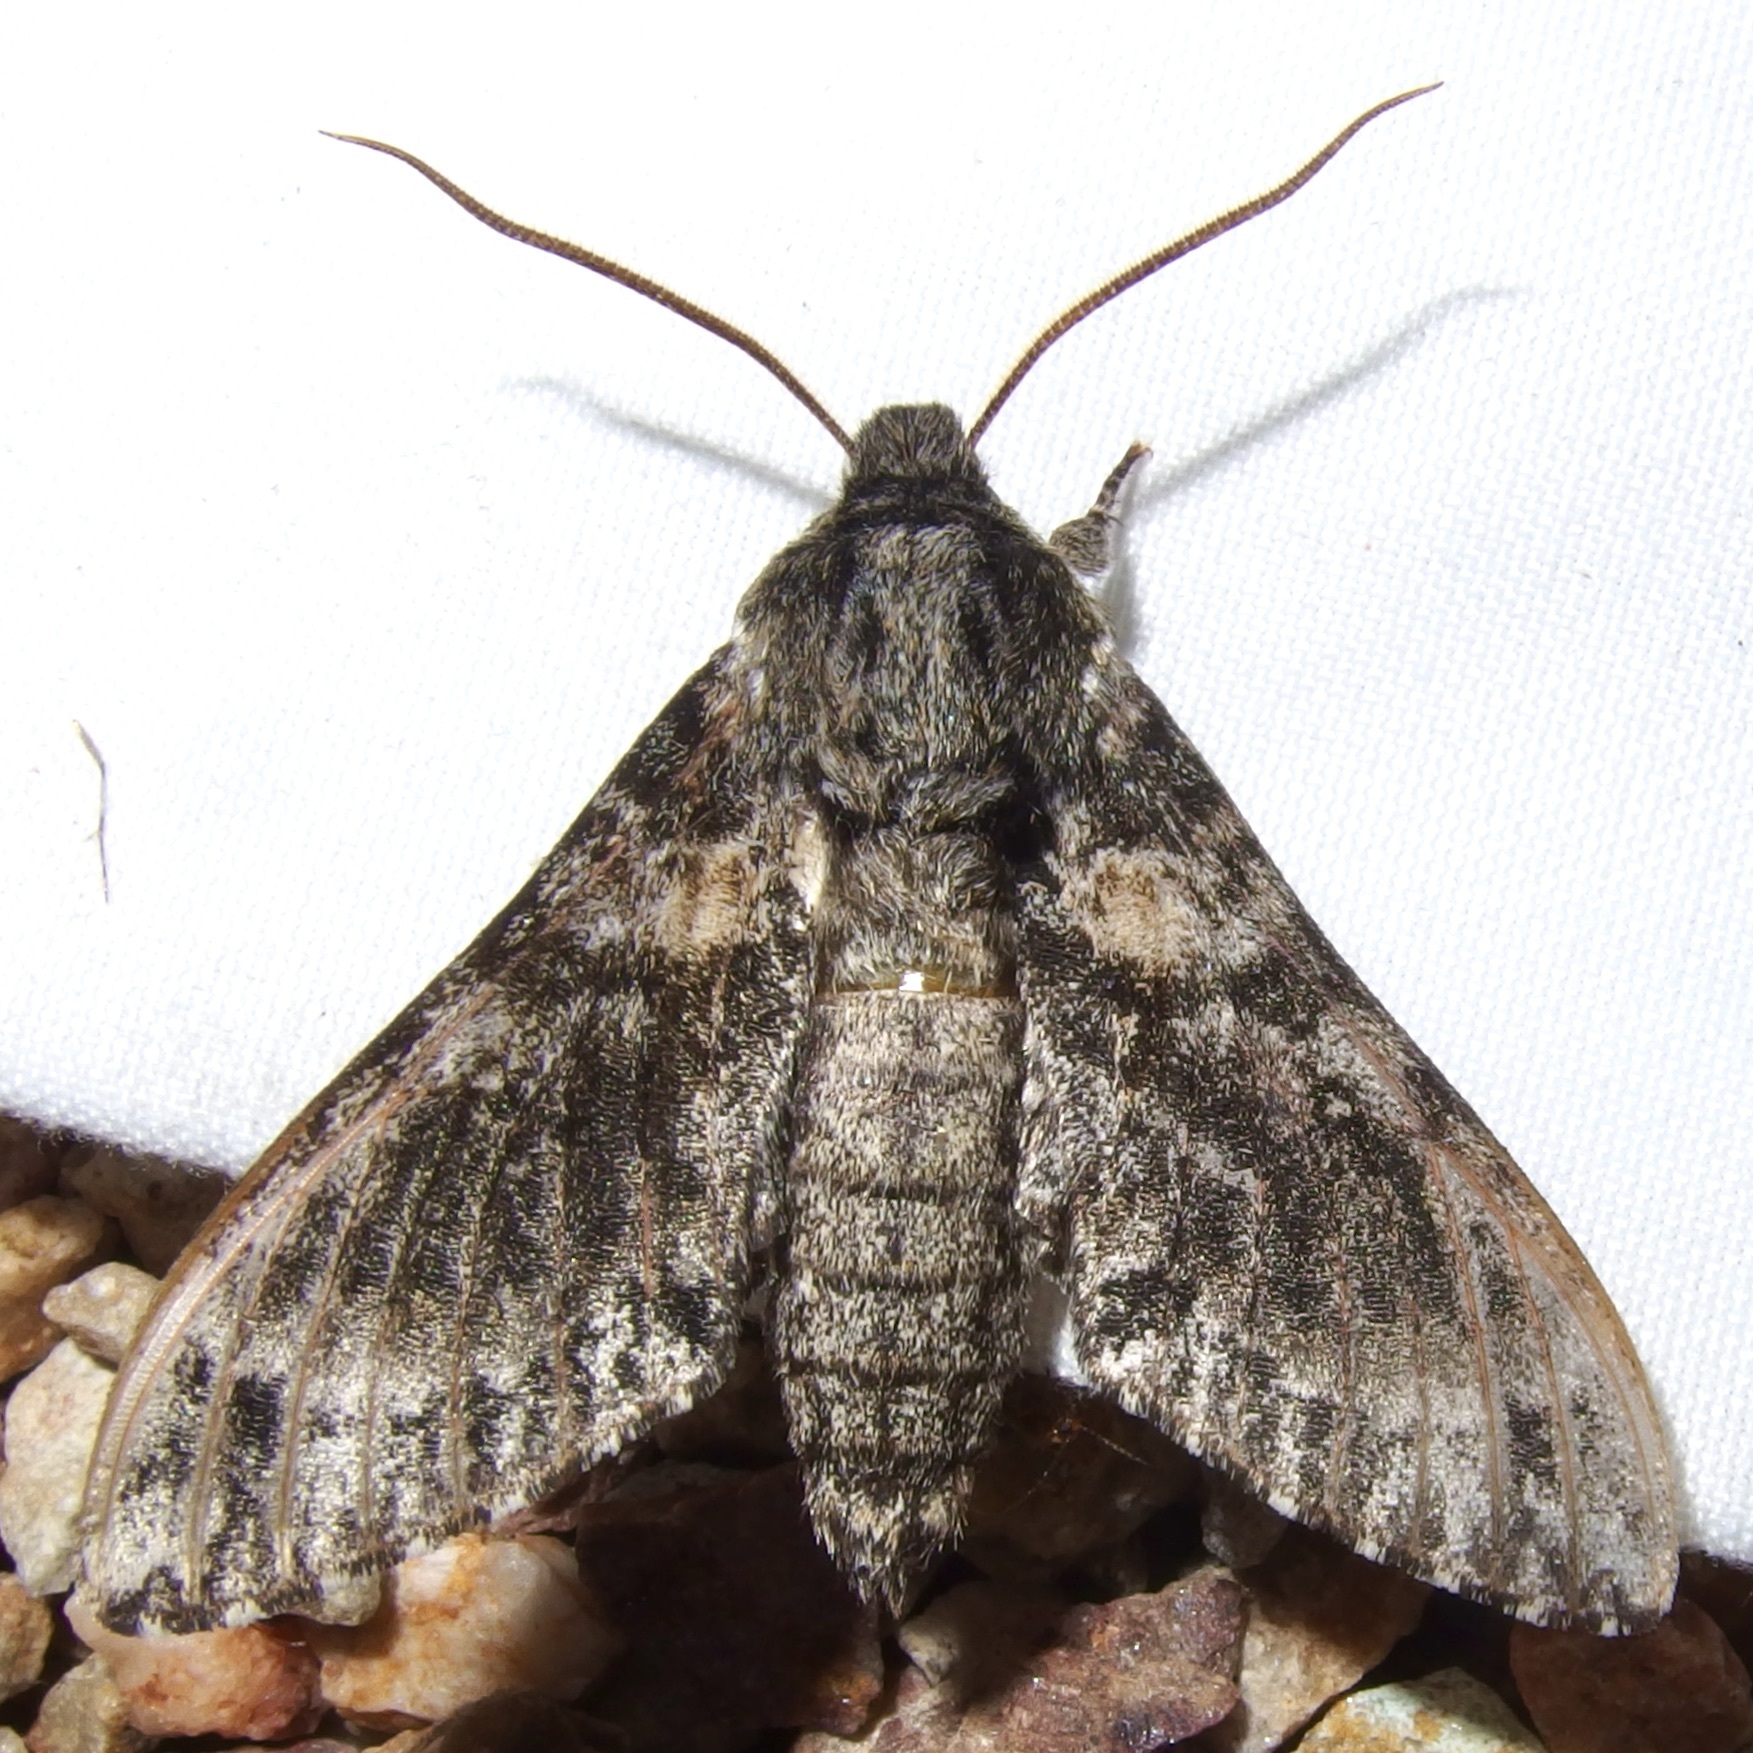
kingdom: Animalia
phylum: Arthropoda
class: Insecta
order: Lepidoptera
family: Sphingidae
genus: Dolbogene
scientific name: Dolbogene hartwegii
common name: Hartweg's sphinx
